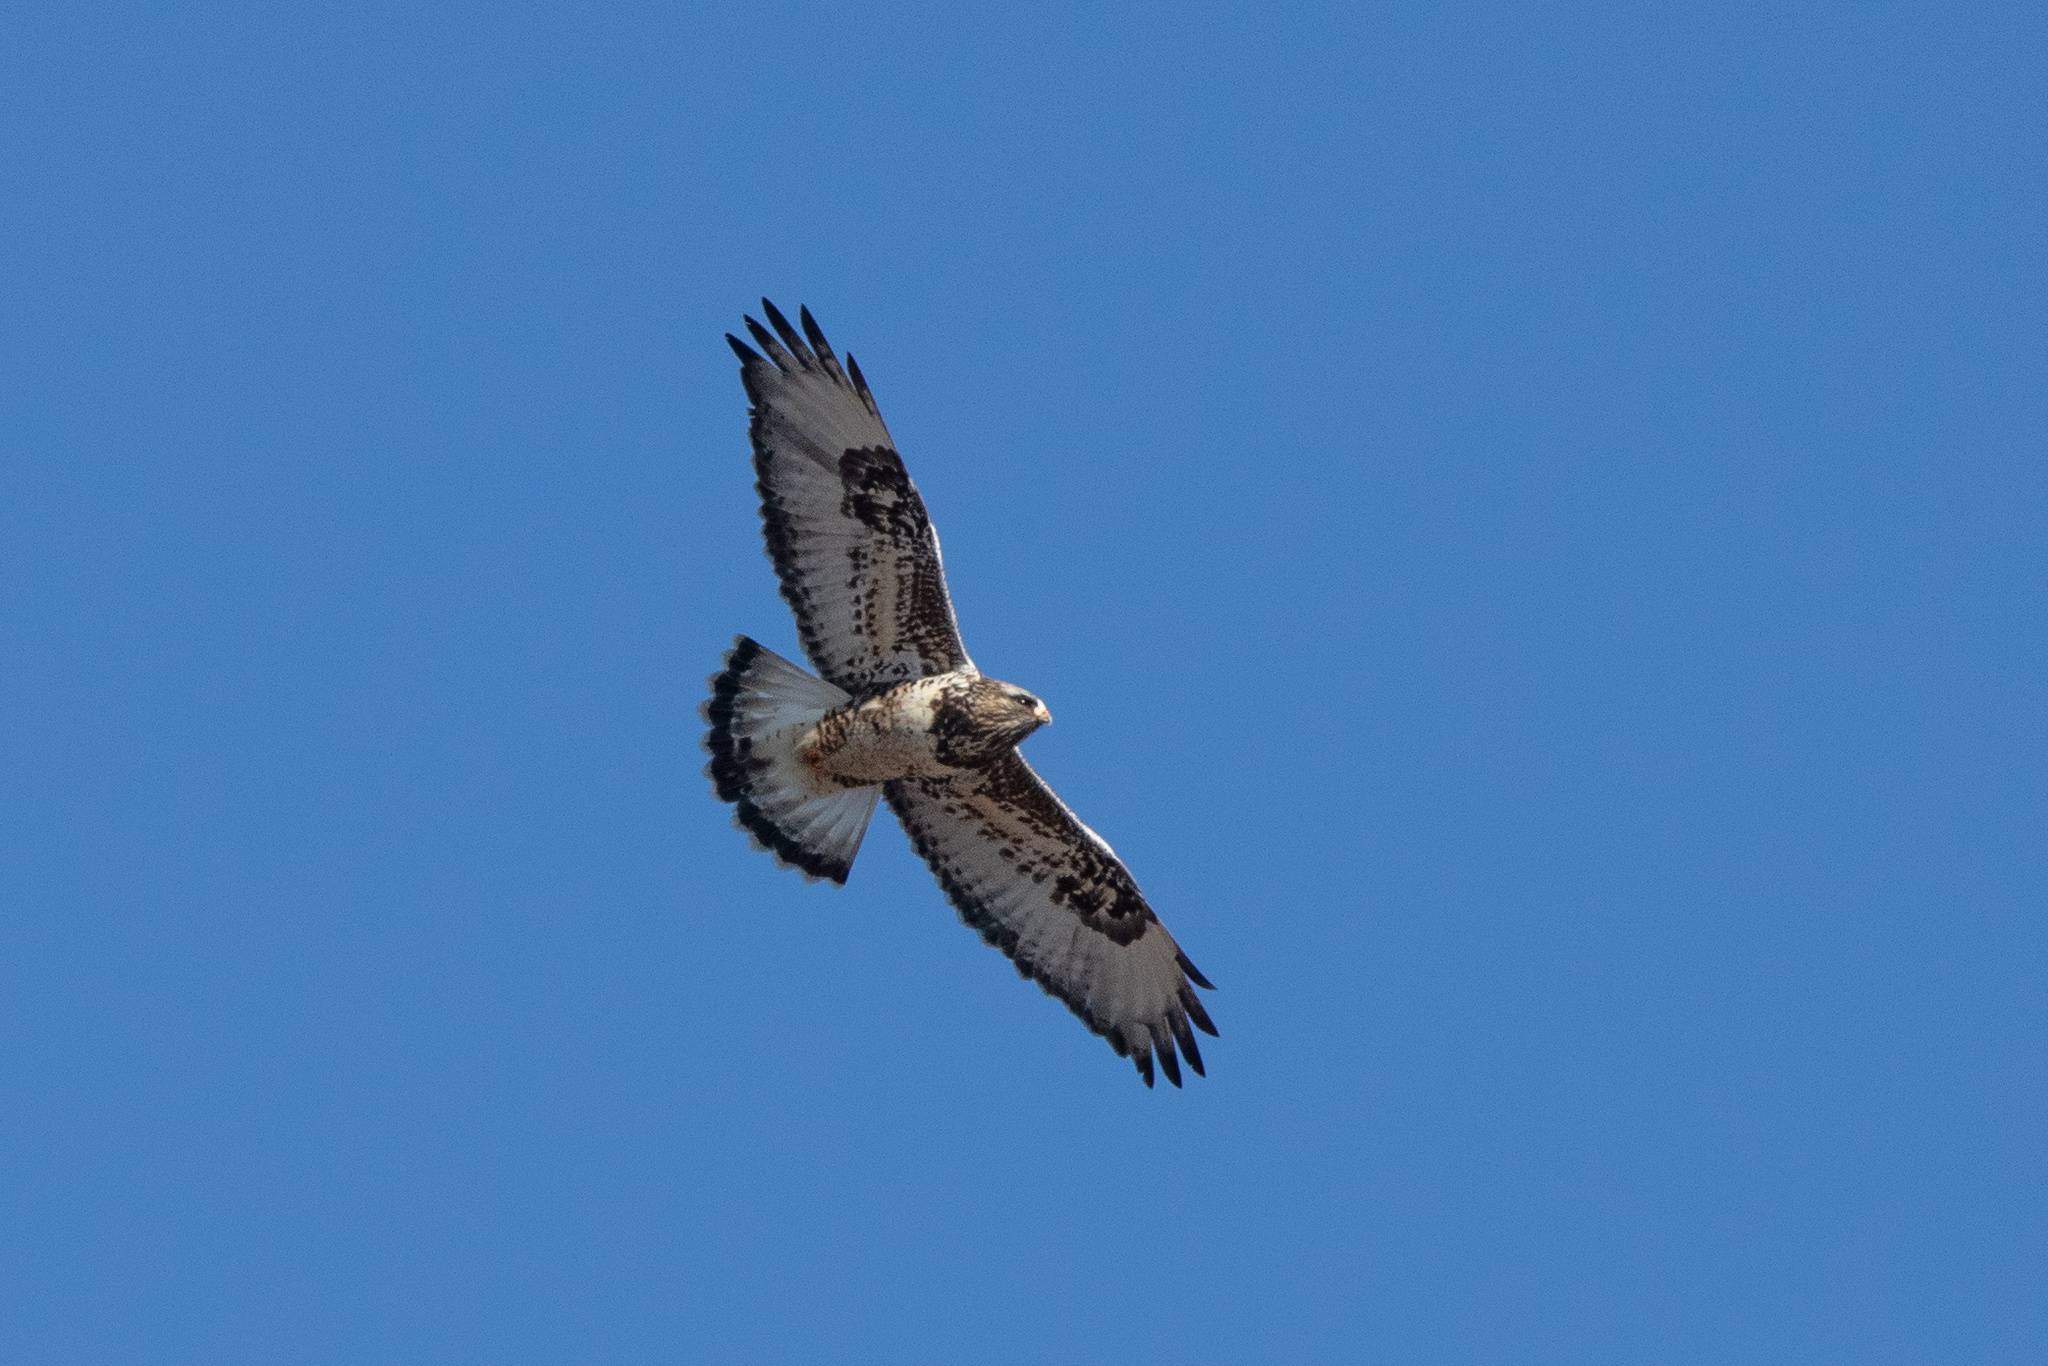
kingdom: Animalia
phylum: Chordata
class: Aves
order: Accipitriformes
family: Accipitridae
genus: Buteo
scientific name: Buteo lagopus
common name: Rough-legged buzzard
